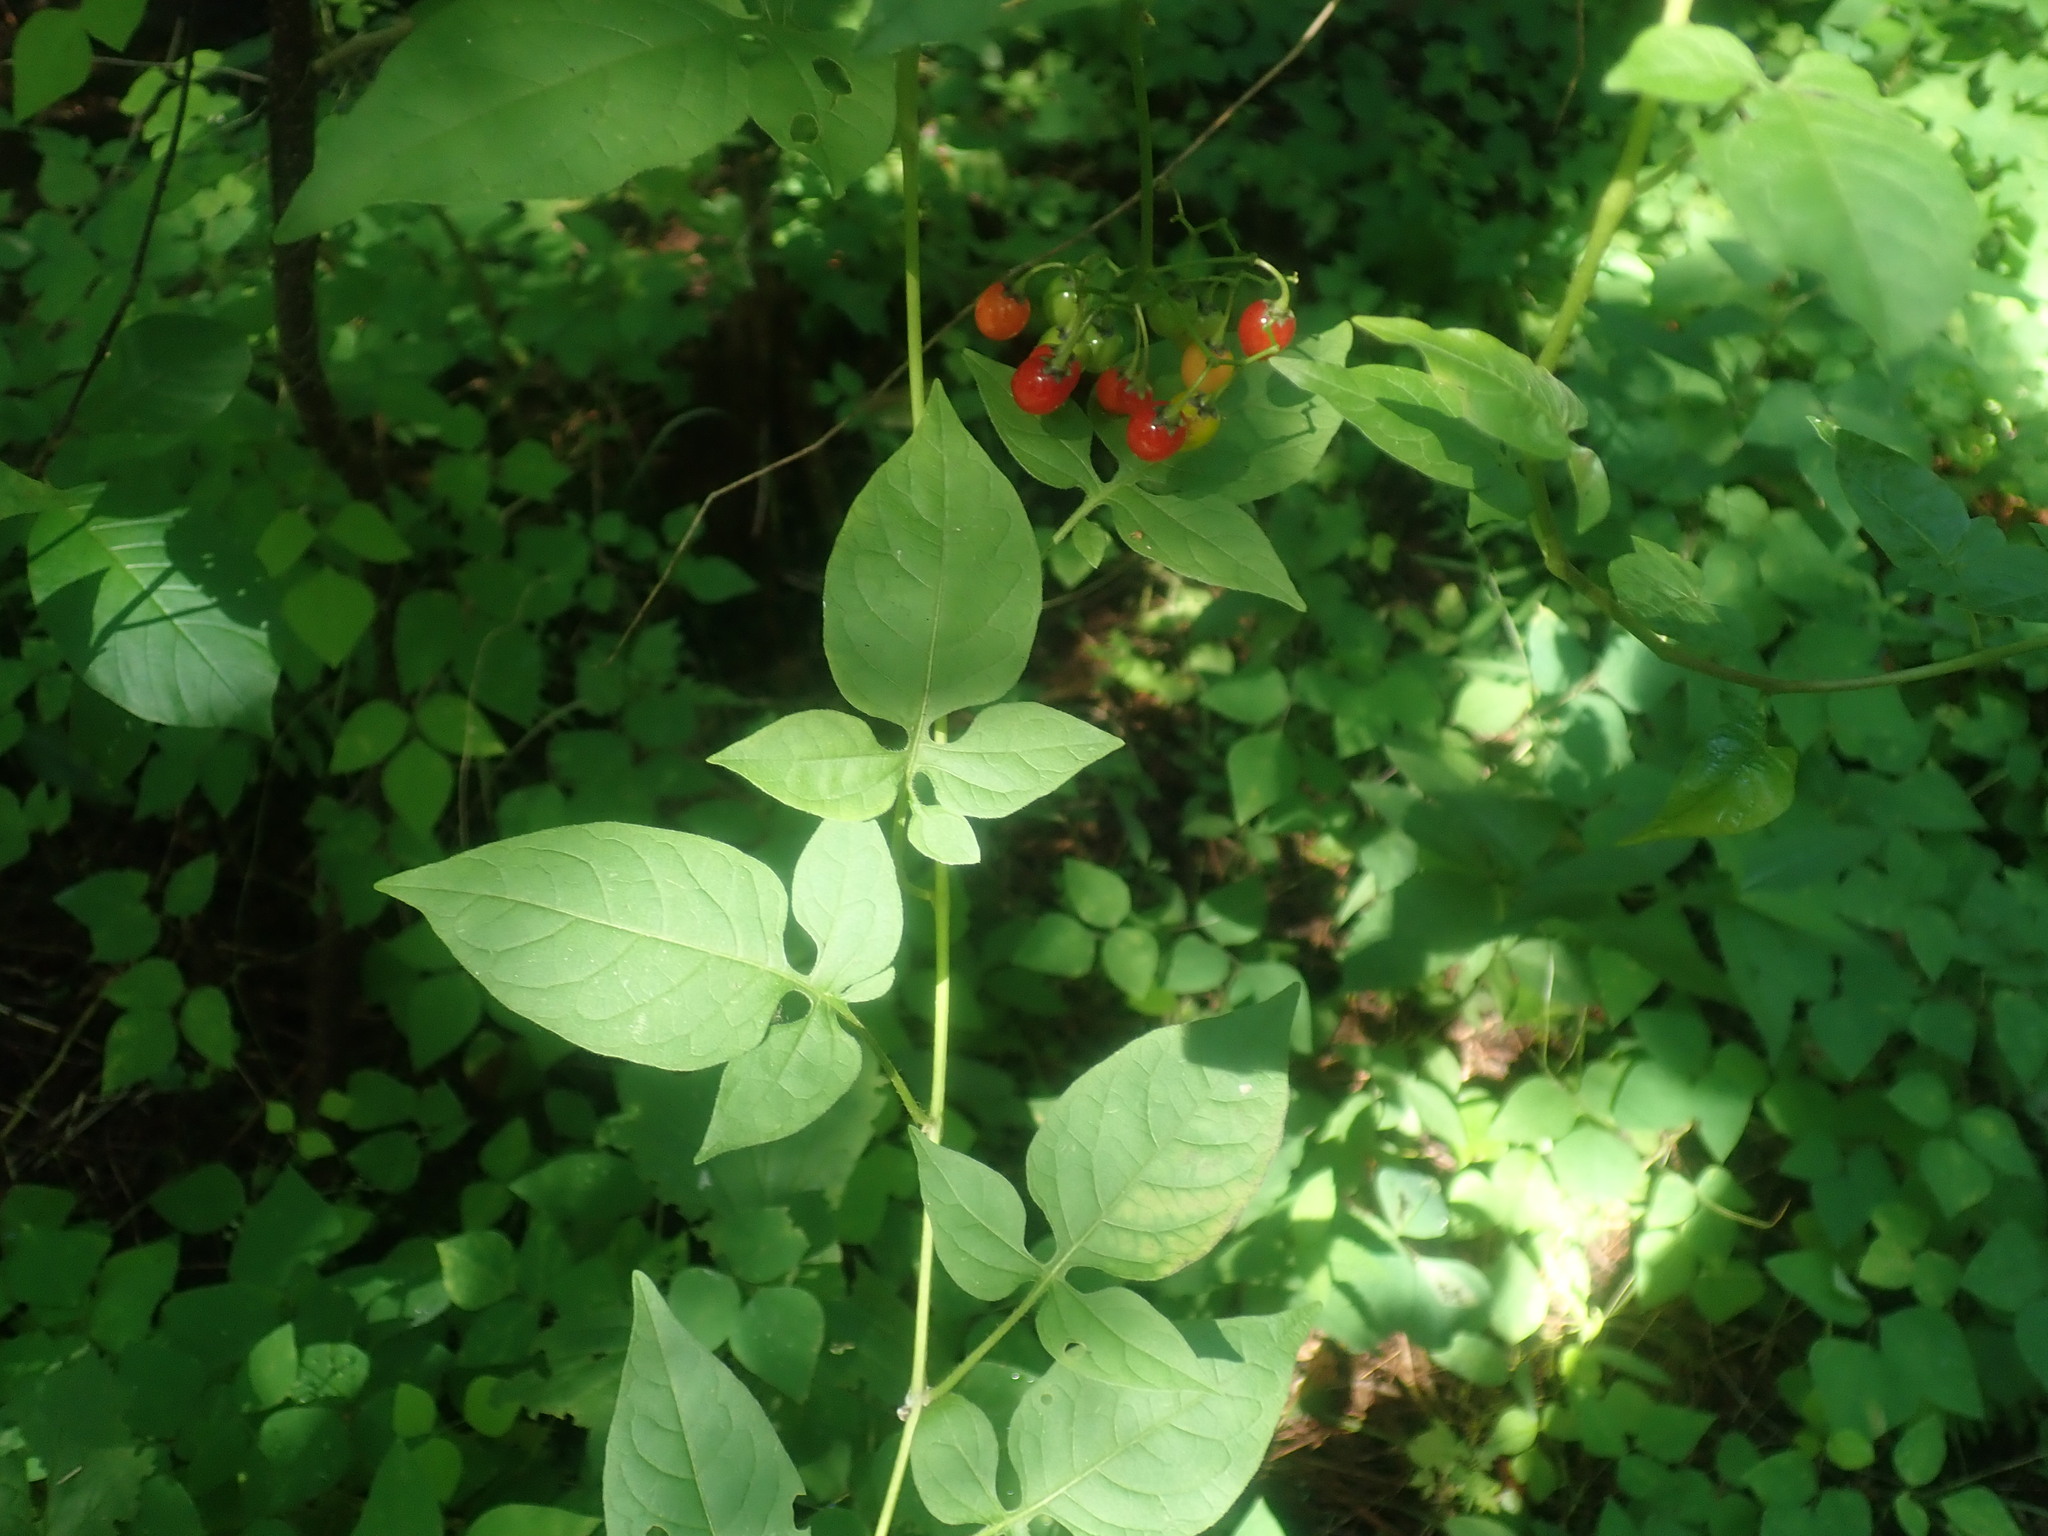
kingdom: Plantae
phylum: Tracheophyta
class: Magnoliopsida
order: Solanales
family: Solanaceae
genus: Solanum
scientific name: Solanum dulcamara
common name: Climbing nightshade
